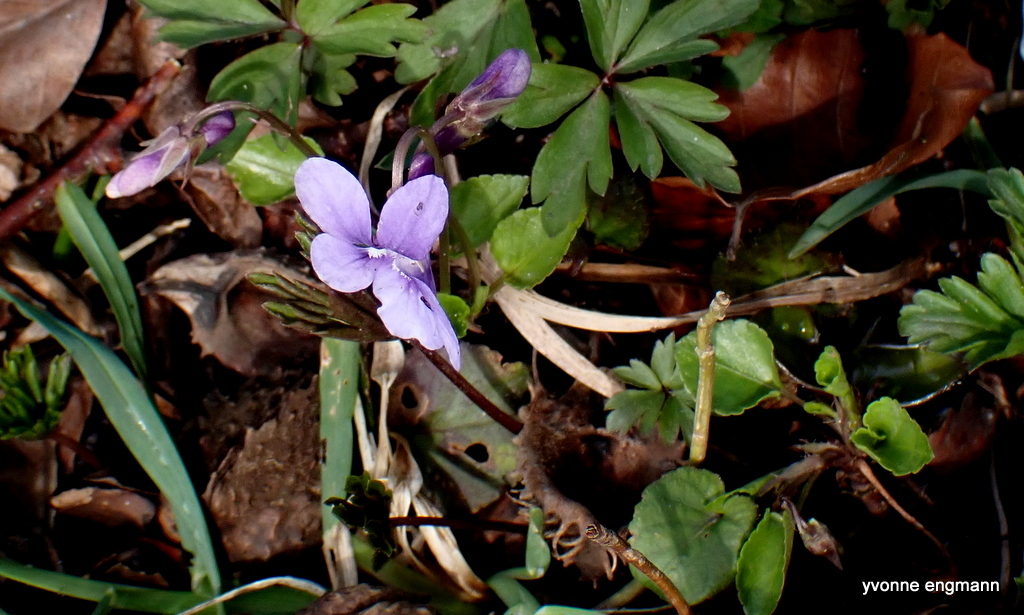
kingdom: Plantae
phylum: Tracheophyta
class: Magnoliopsida
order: Malpighiales
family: Violaceae
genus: Viola
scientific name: Viola reichenbachiana
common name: Early dog-violet
